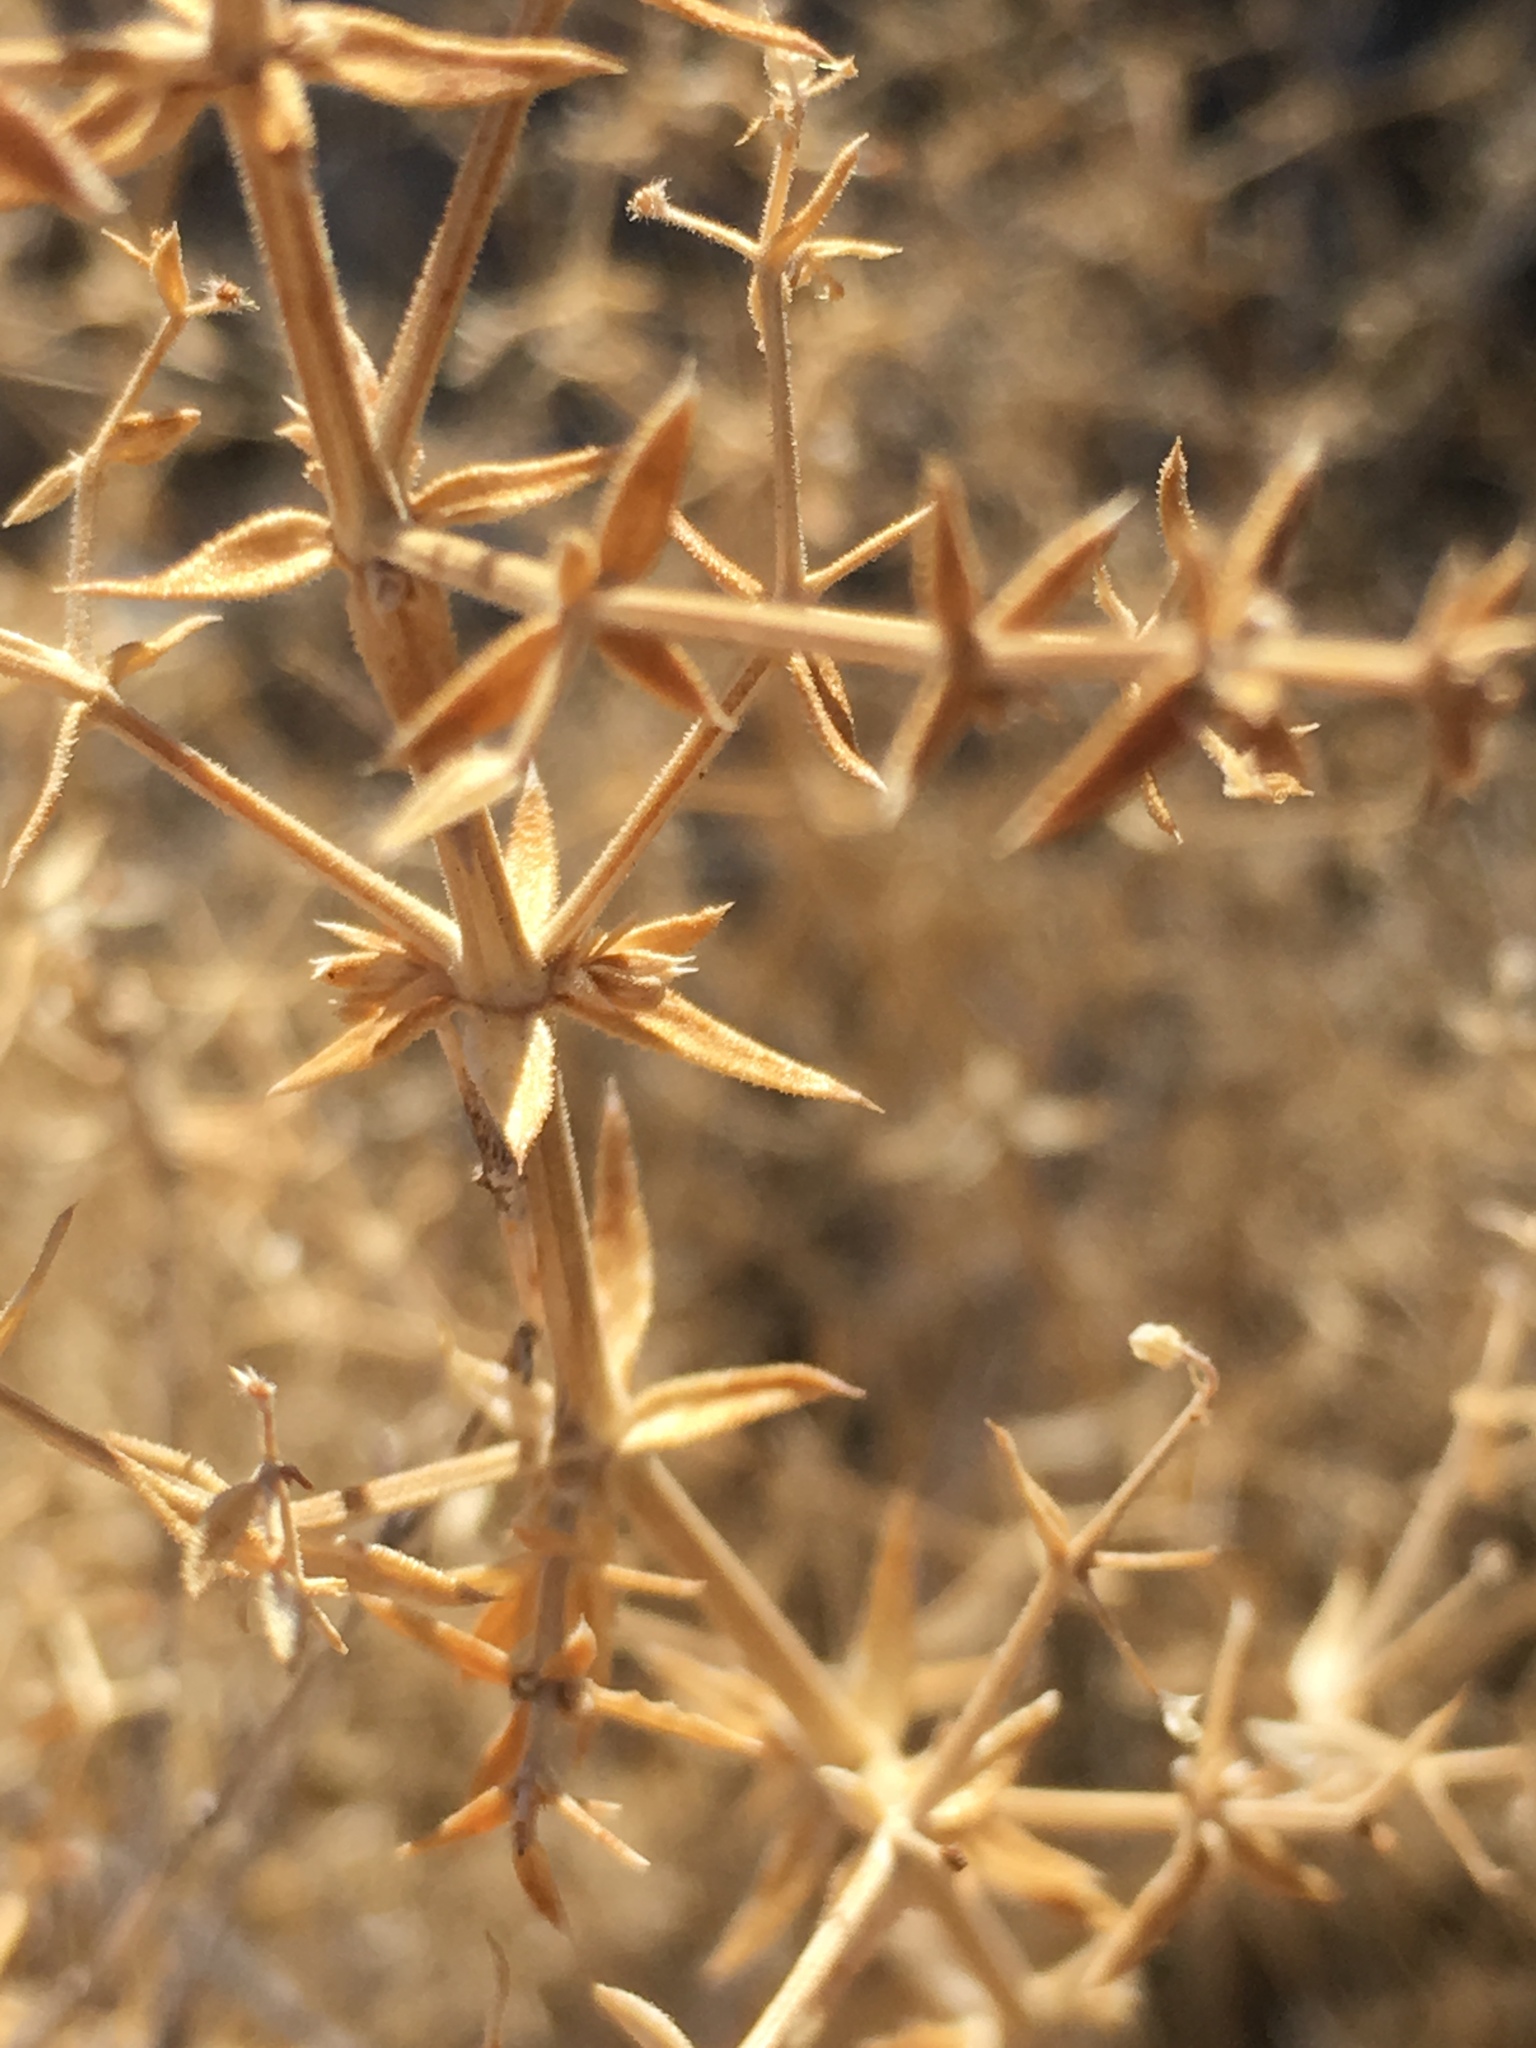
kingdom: Plantae
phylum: Tracheophyta
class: Magnoliopsida
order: Gentianales
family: Rubiaceae
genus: Galium
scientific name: Galium stellatum
